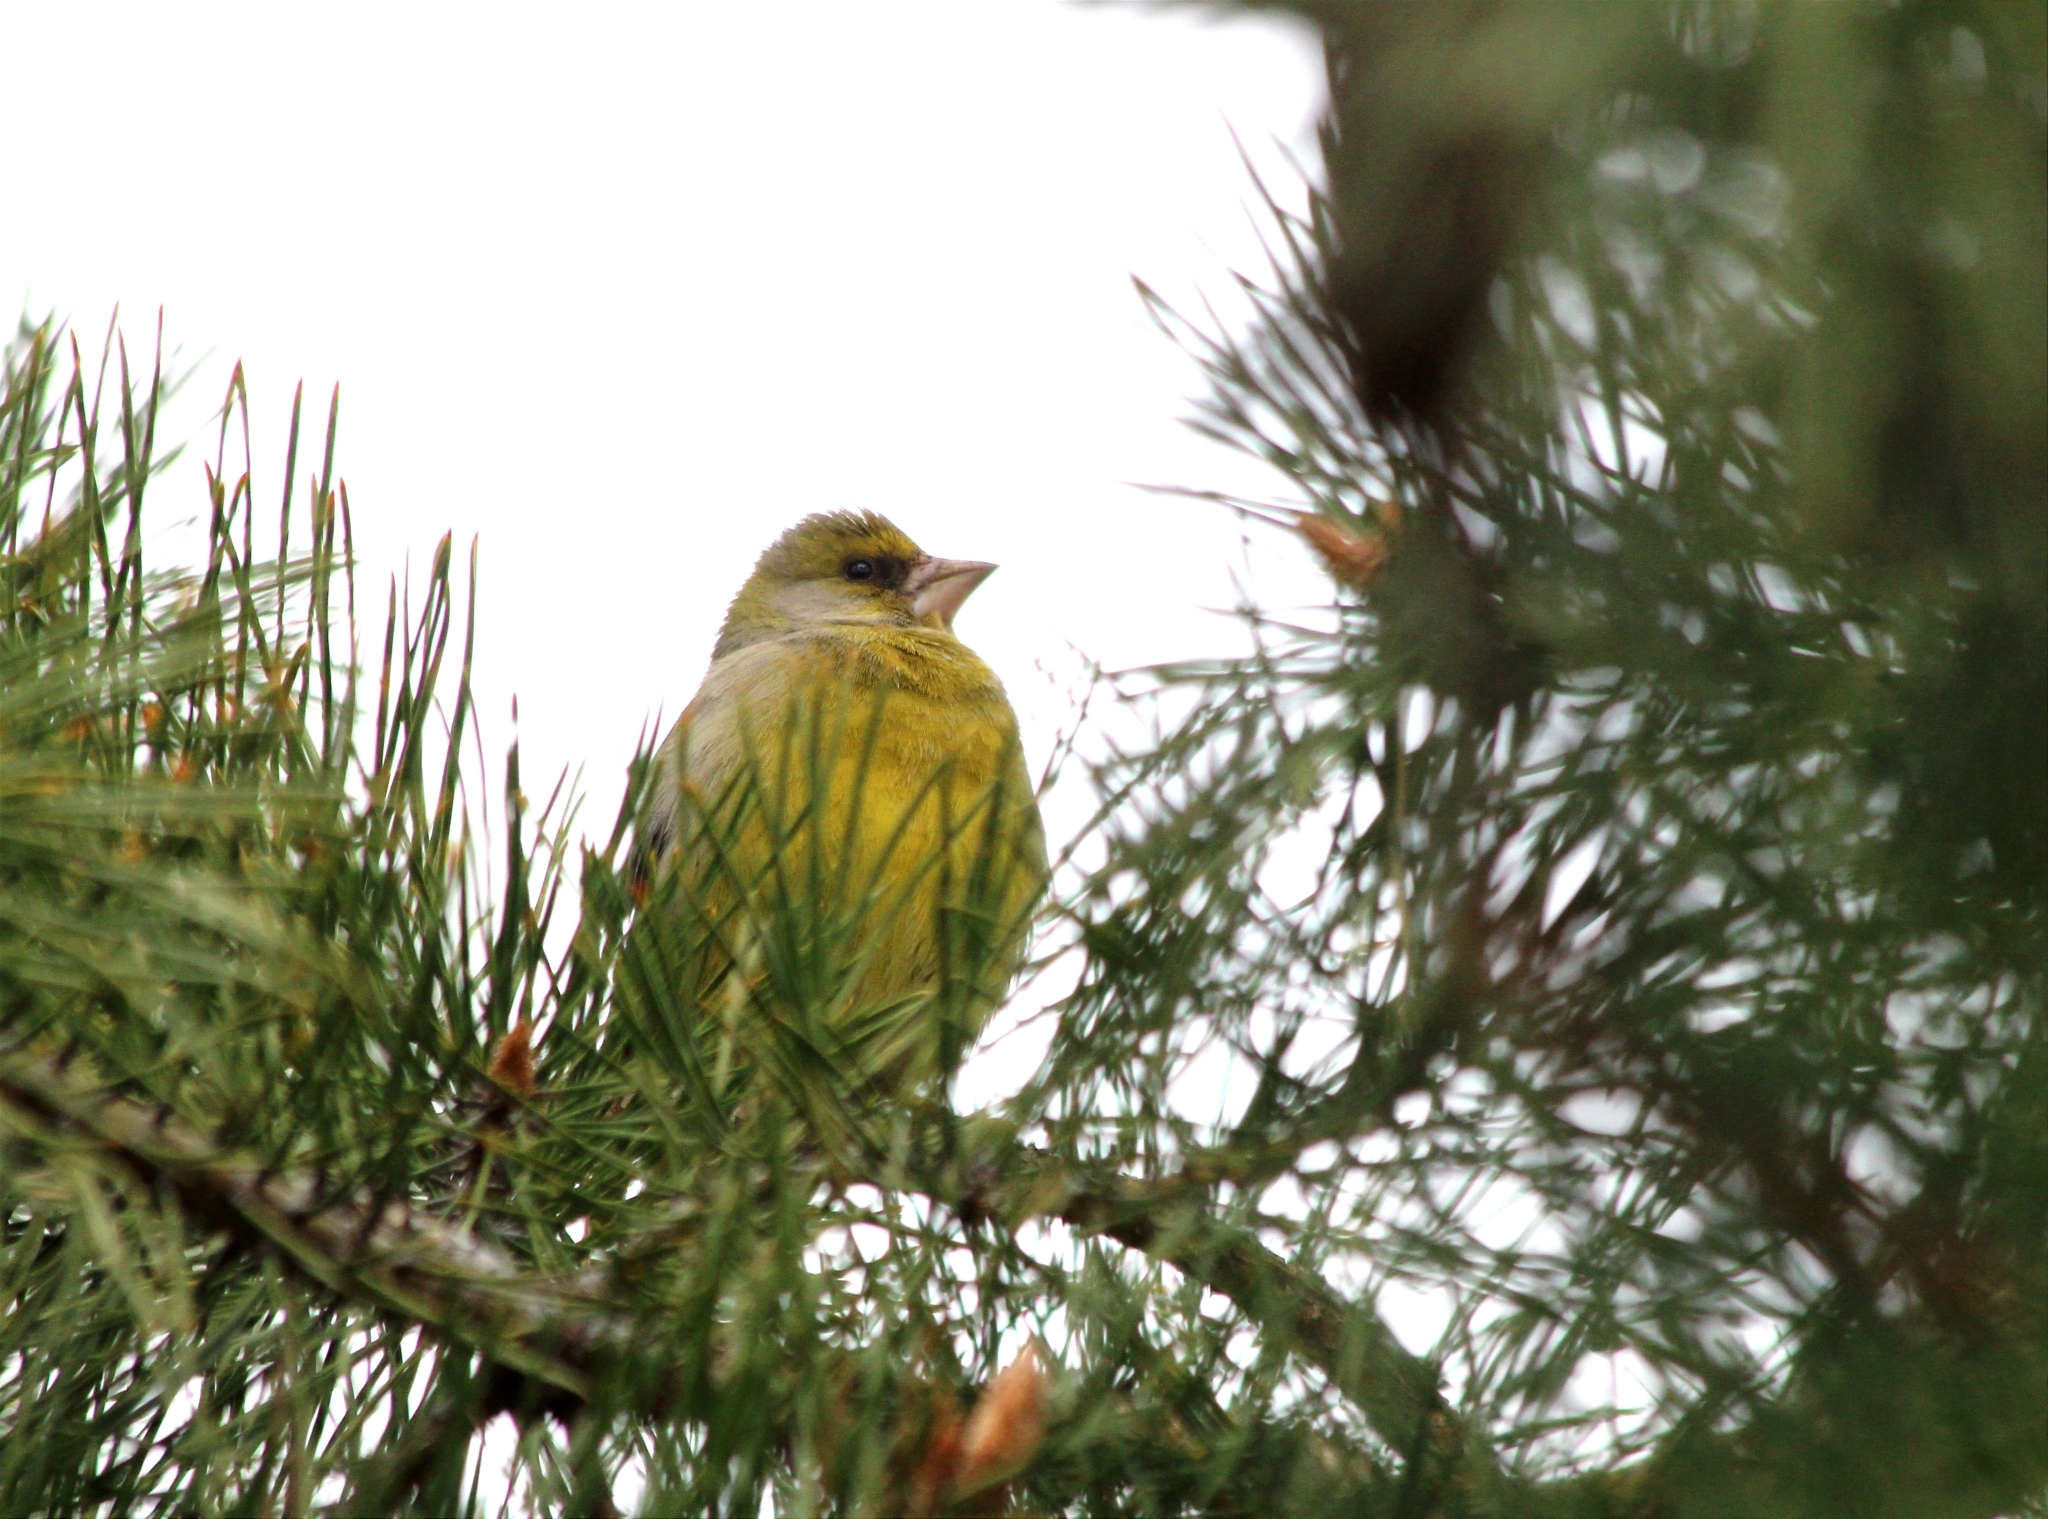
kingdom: Plantae
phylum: Tracheophyta
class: Liliopsida
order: Poales
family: Poaceae
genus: Chloris
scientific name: Chloris chloris
